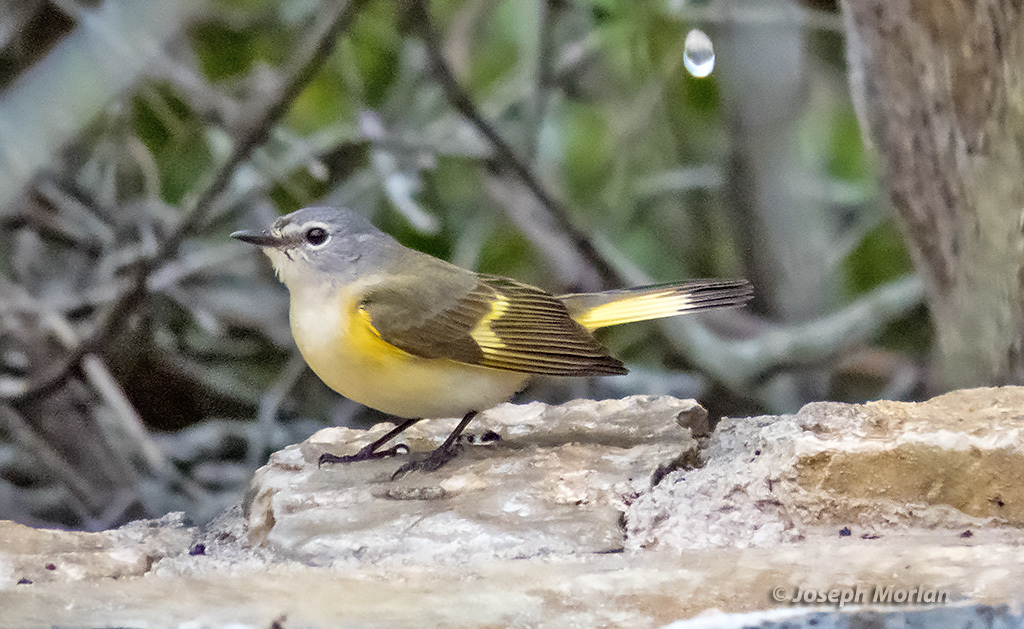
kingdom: Animalia
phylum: Chordata
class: Aves
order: Passeriformes
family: Parulidae
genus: Setophaga
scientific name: Setophaga ruticilla
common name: American redstart
